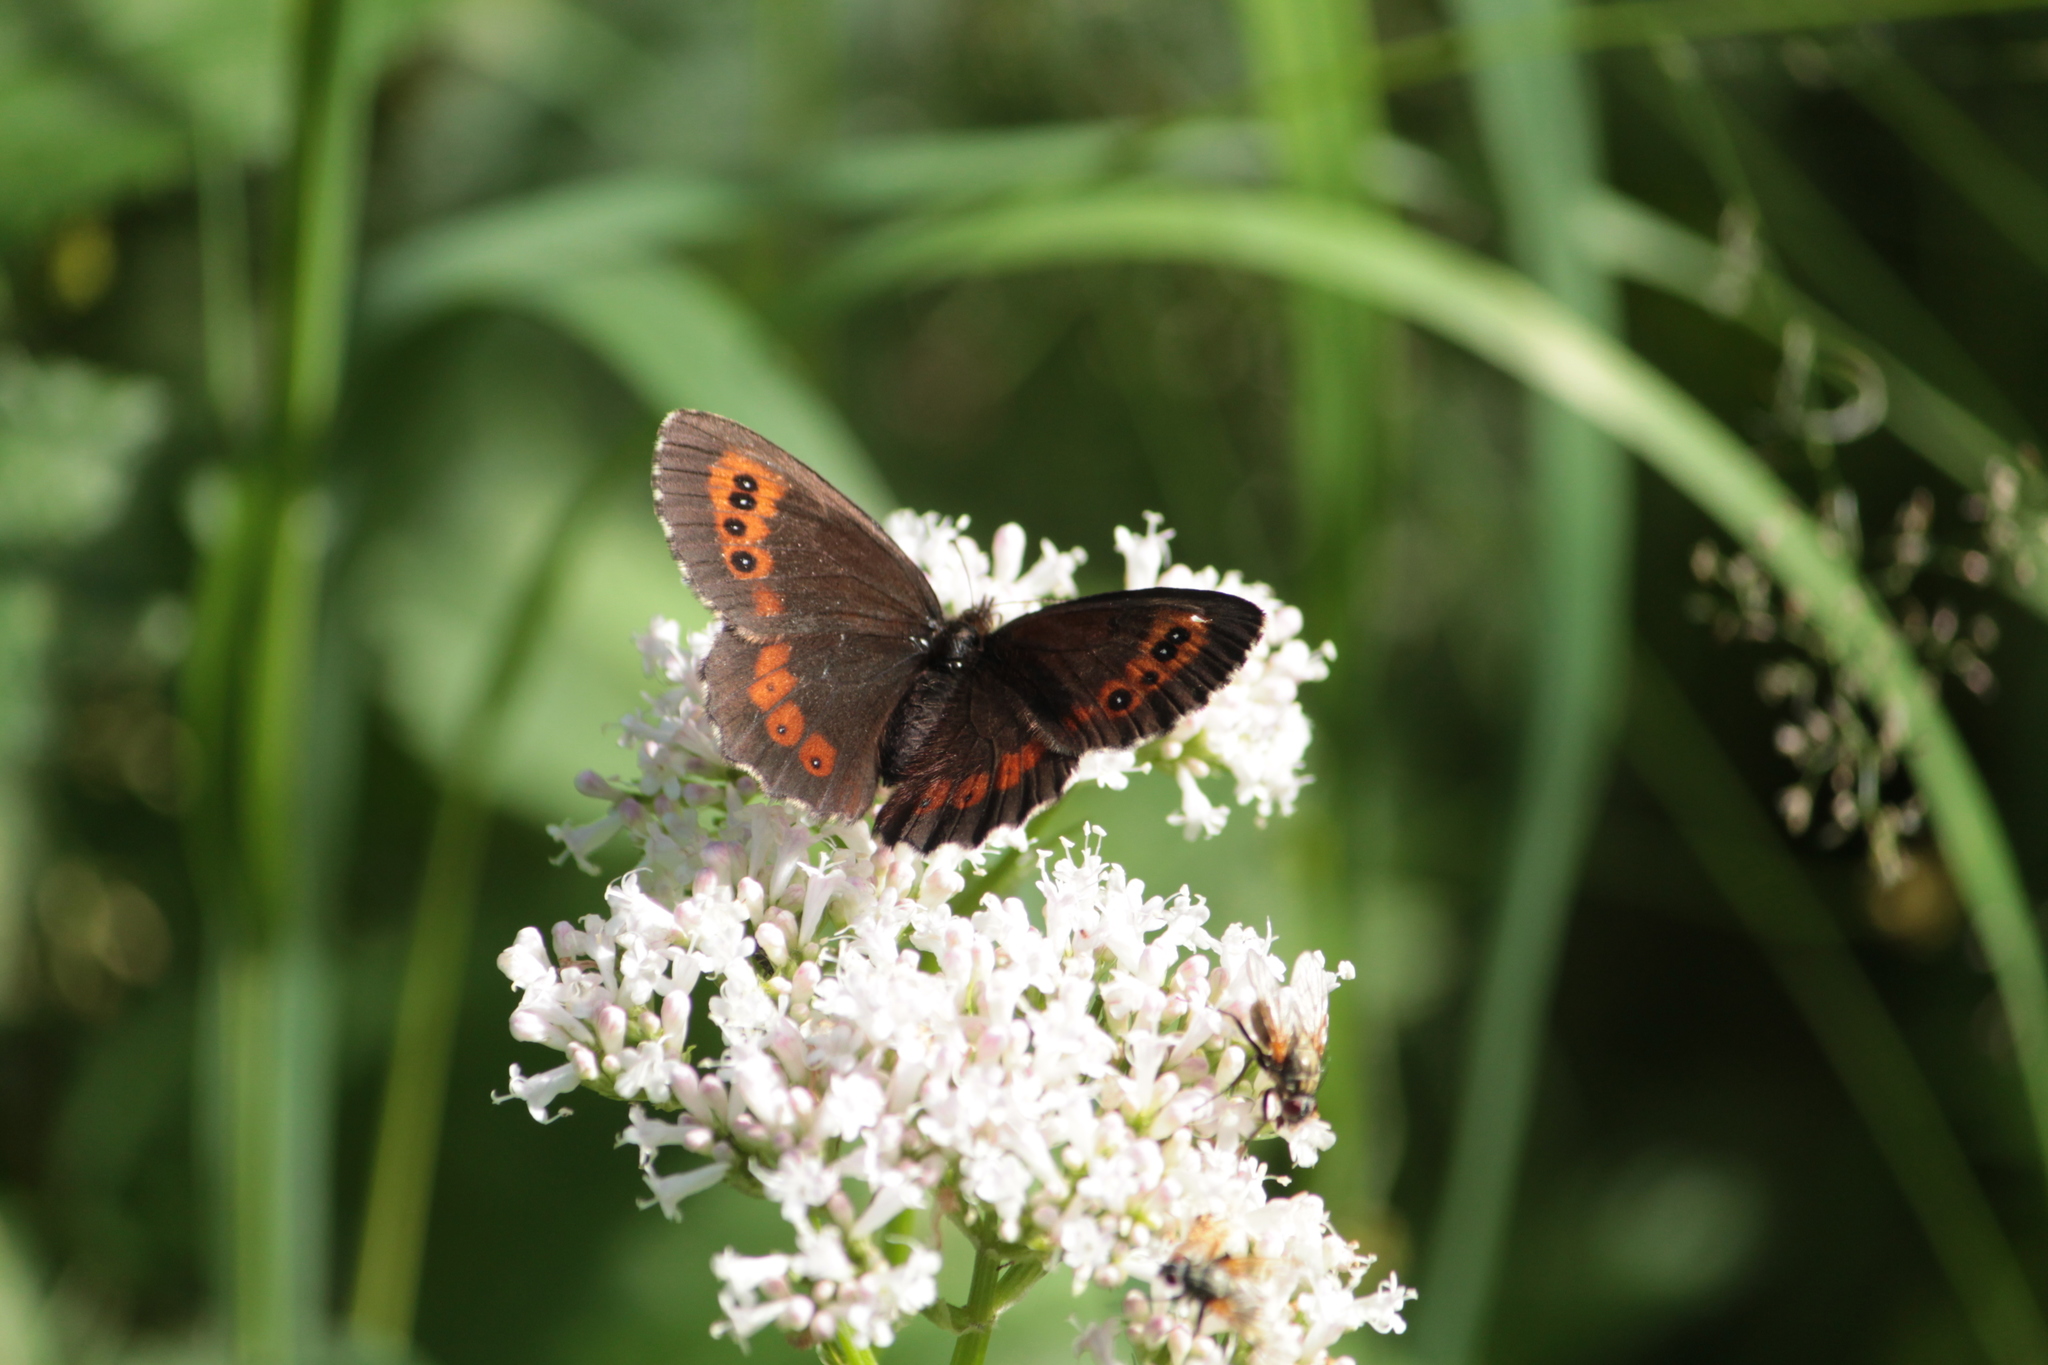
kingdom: Animalia
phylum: Arthropoda
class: Insecta
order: Lepidoptera
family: Nymphalidae
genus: Erebia
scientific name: Erebia ligea
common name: Arran brown
